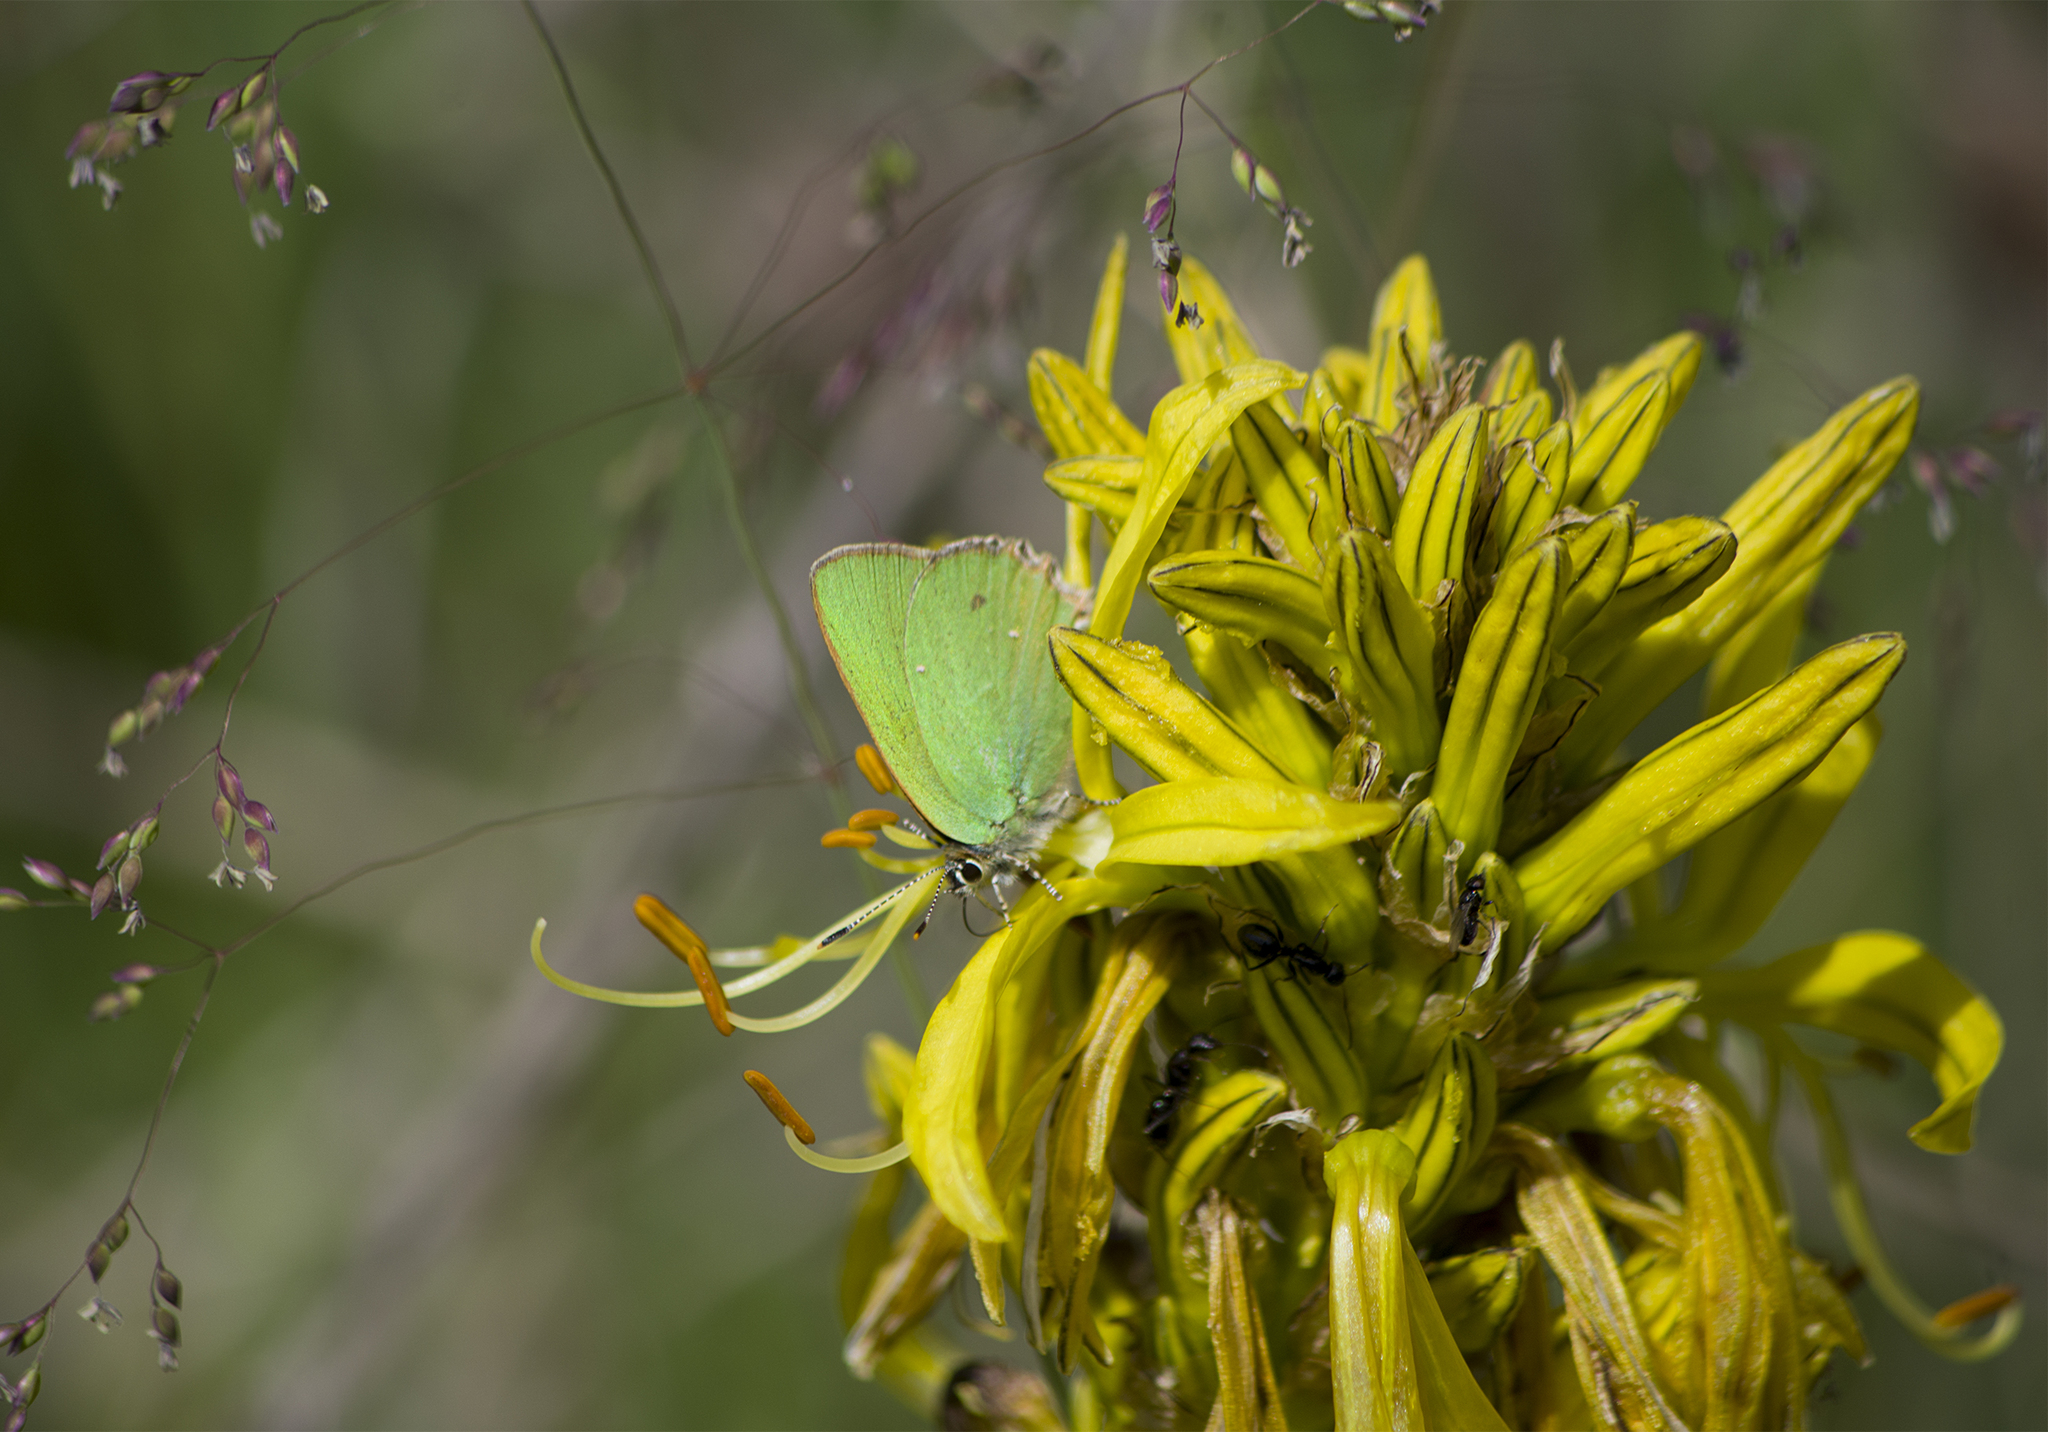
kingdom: Animalia
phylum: Arthropoda
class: Insecta
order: Lepidoptera
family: Lycaenidae
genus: Callophrys
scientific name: Callophrys rubi
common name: Green hairstreak
